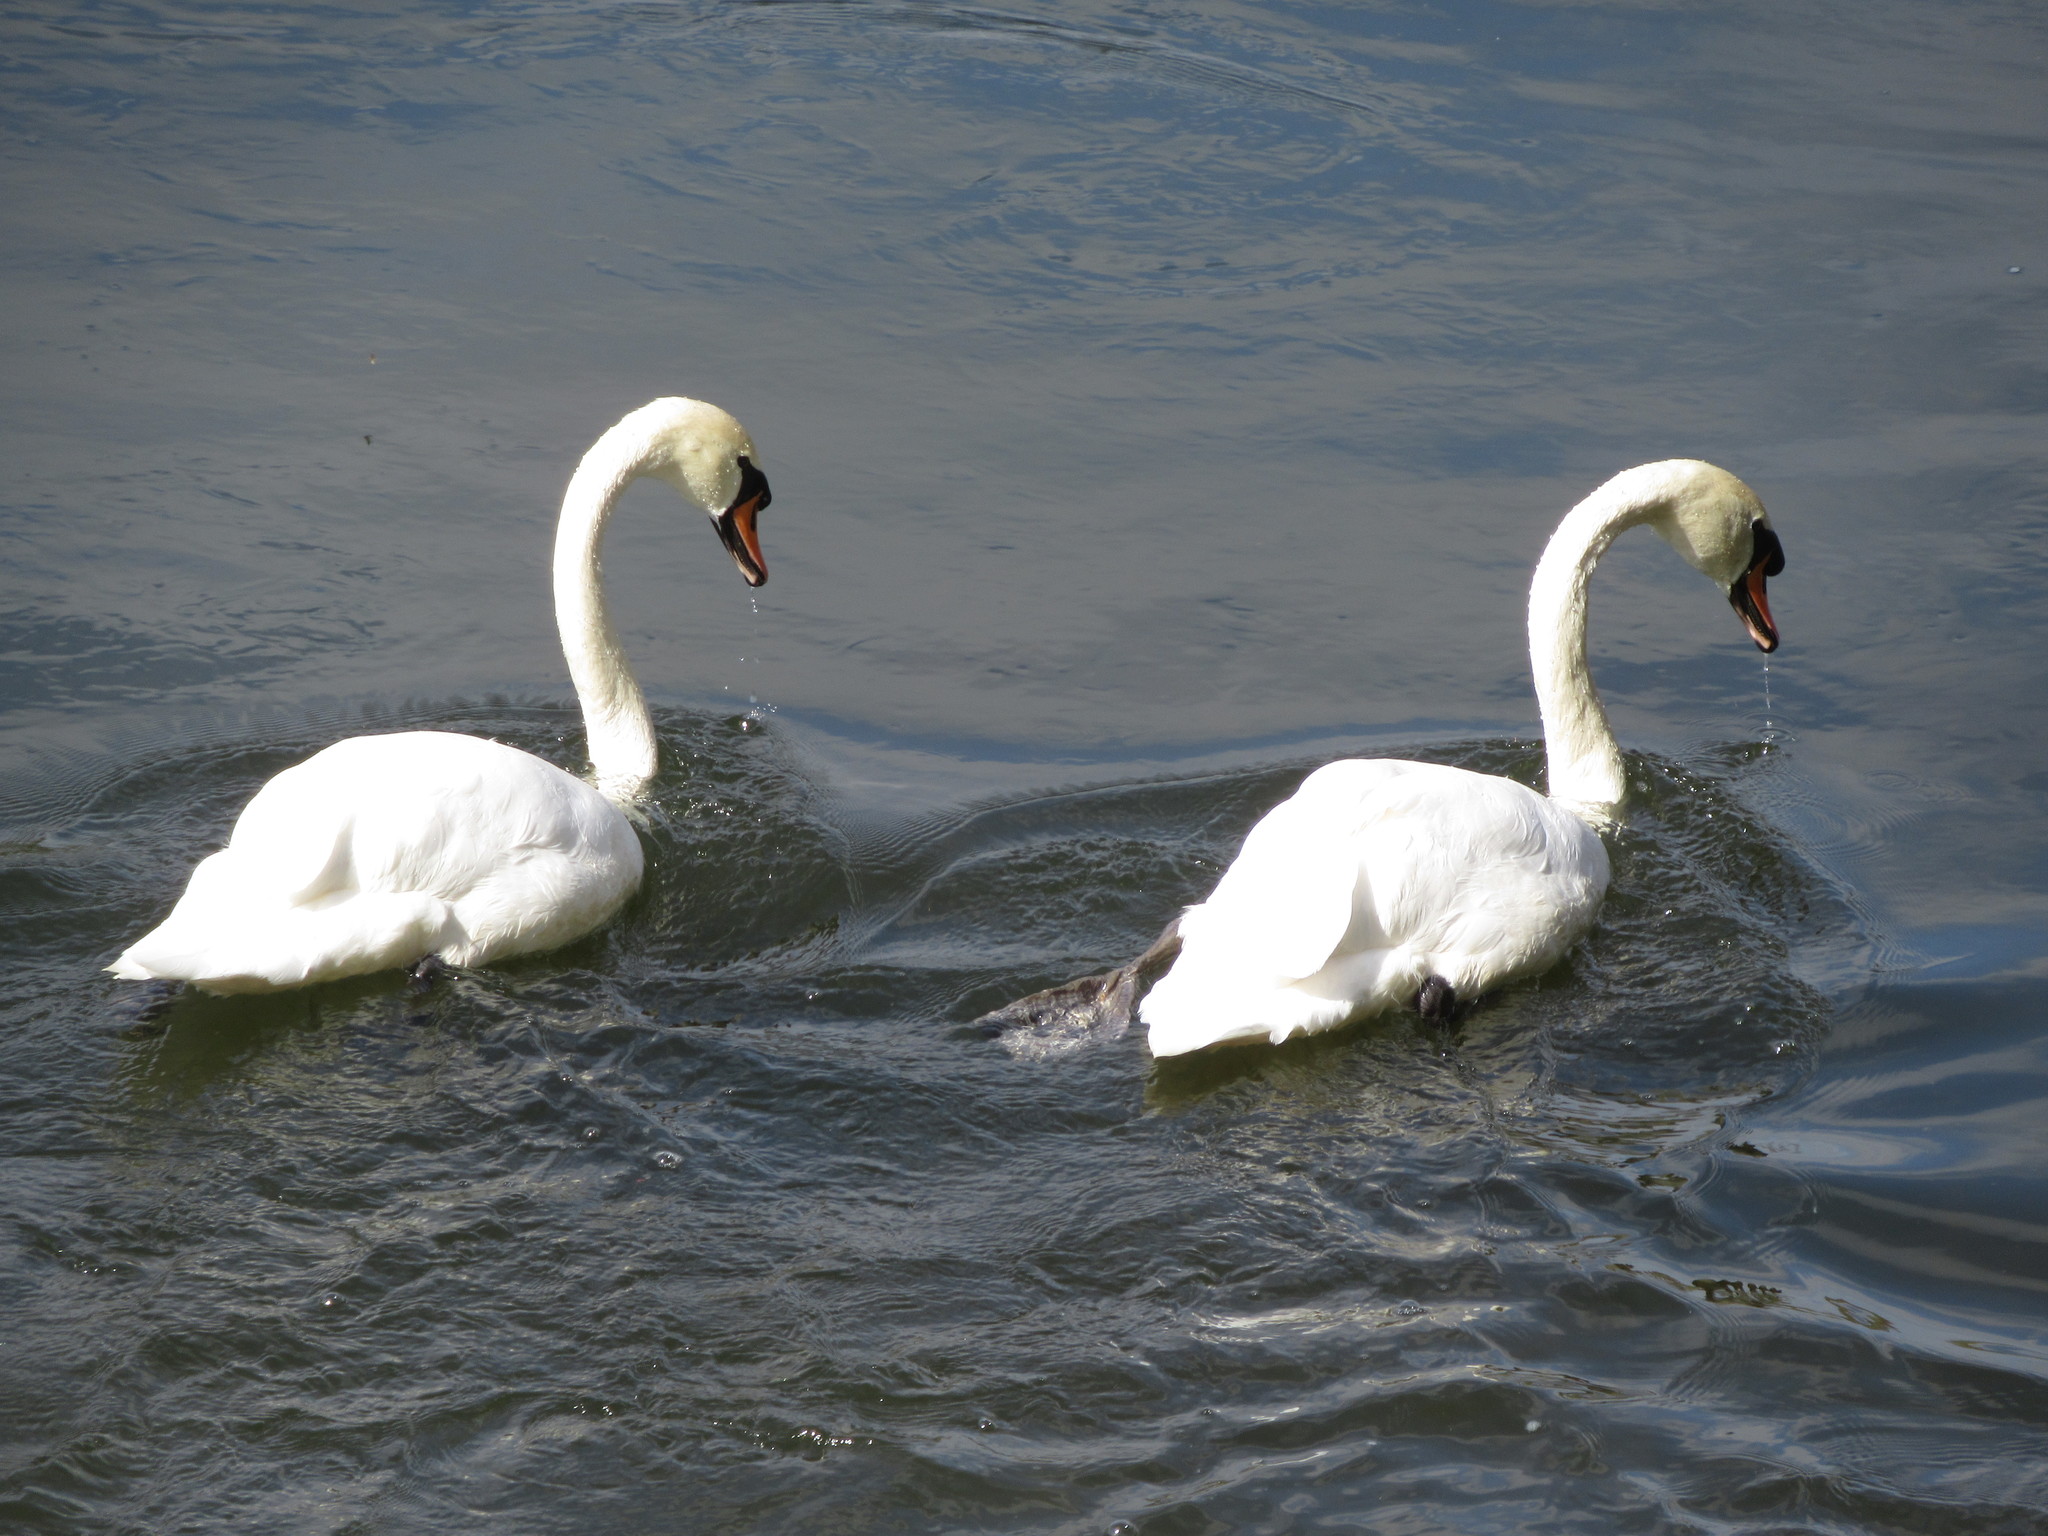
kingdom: Animalia
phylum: Chordata
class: Aves
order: Anseriformes
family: Anatidae
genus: Cygnus
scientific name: Cygnus olor
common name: Mute swan
